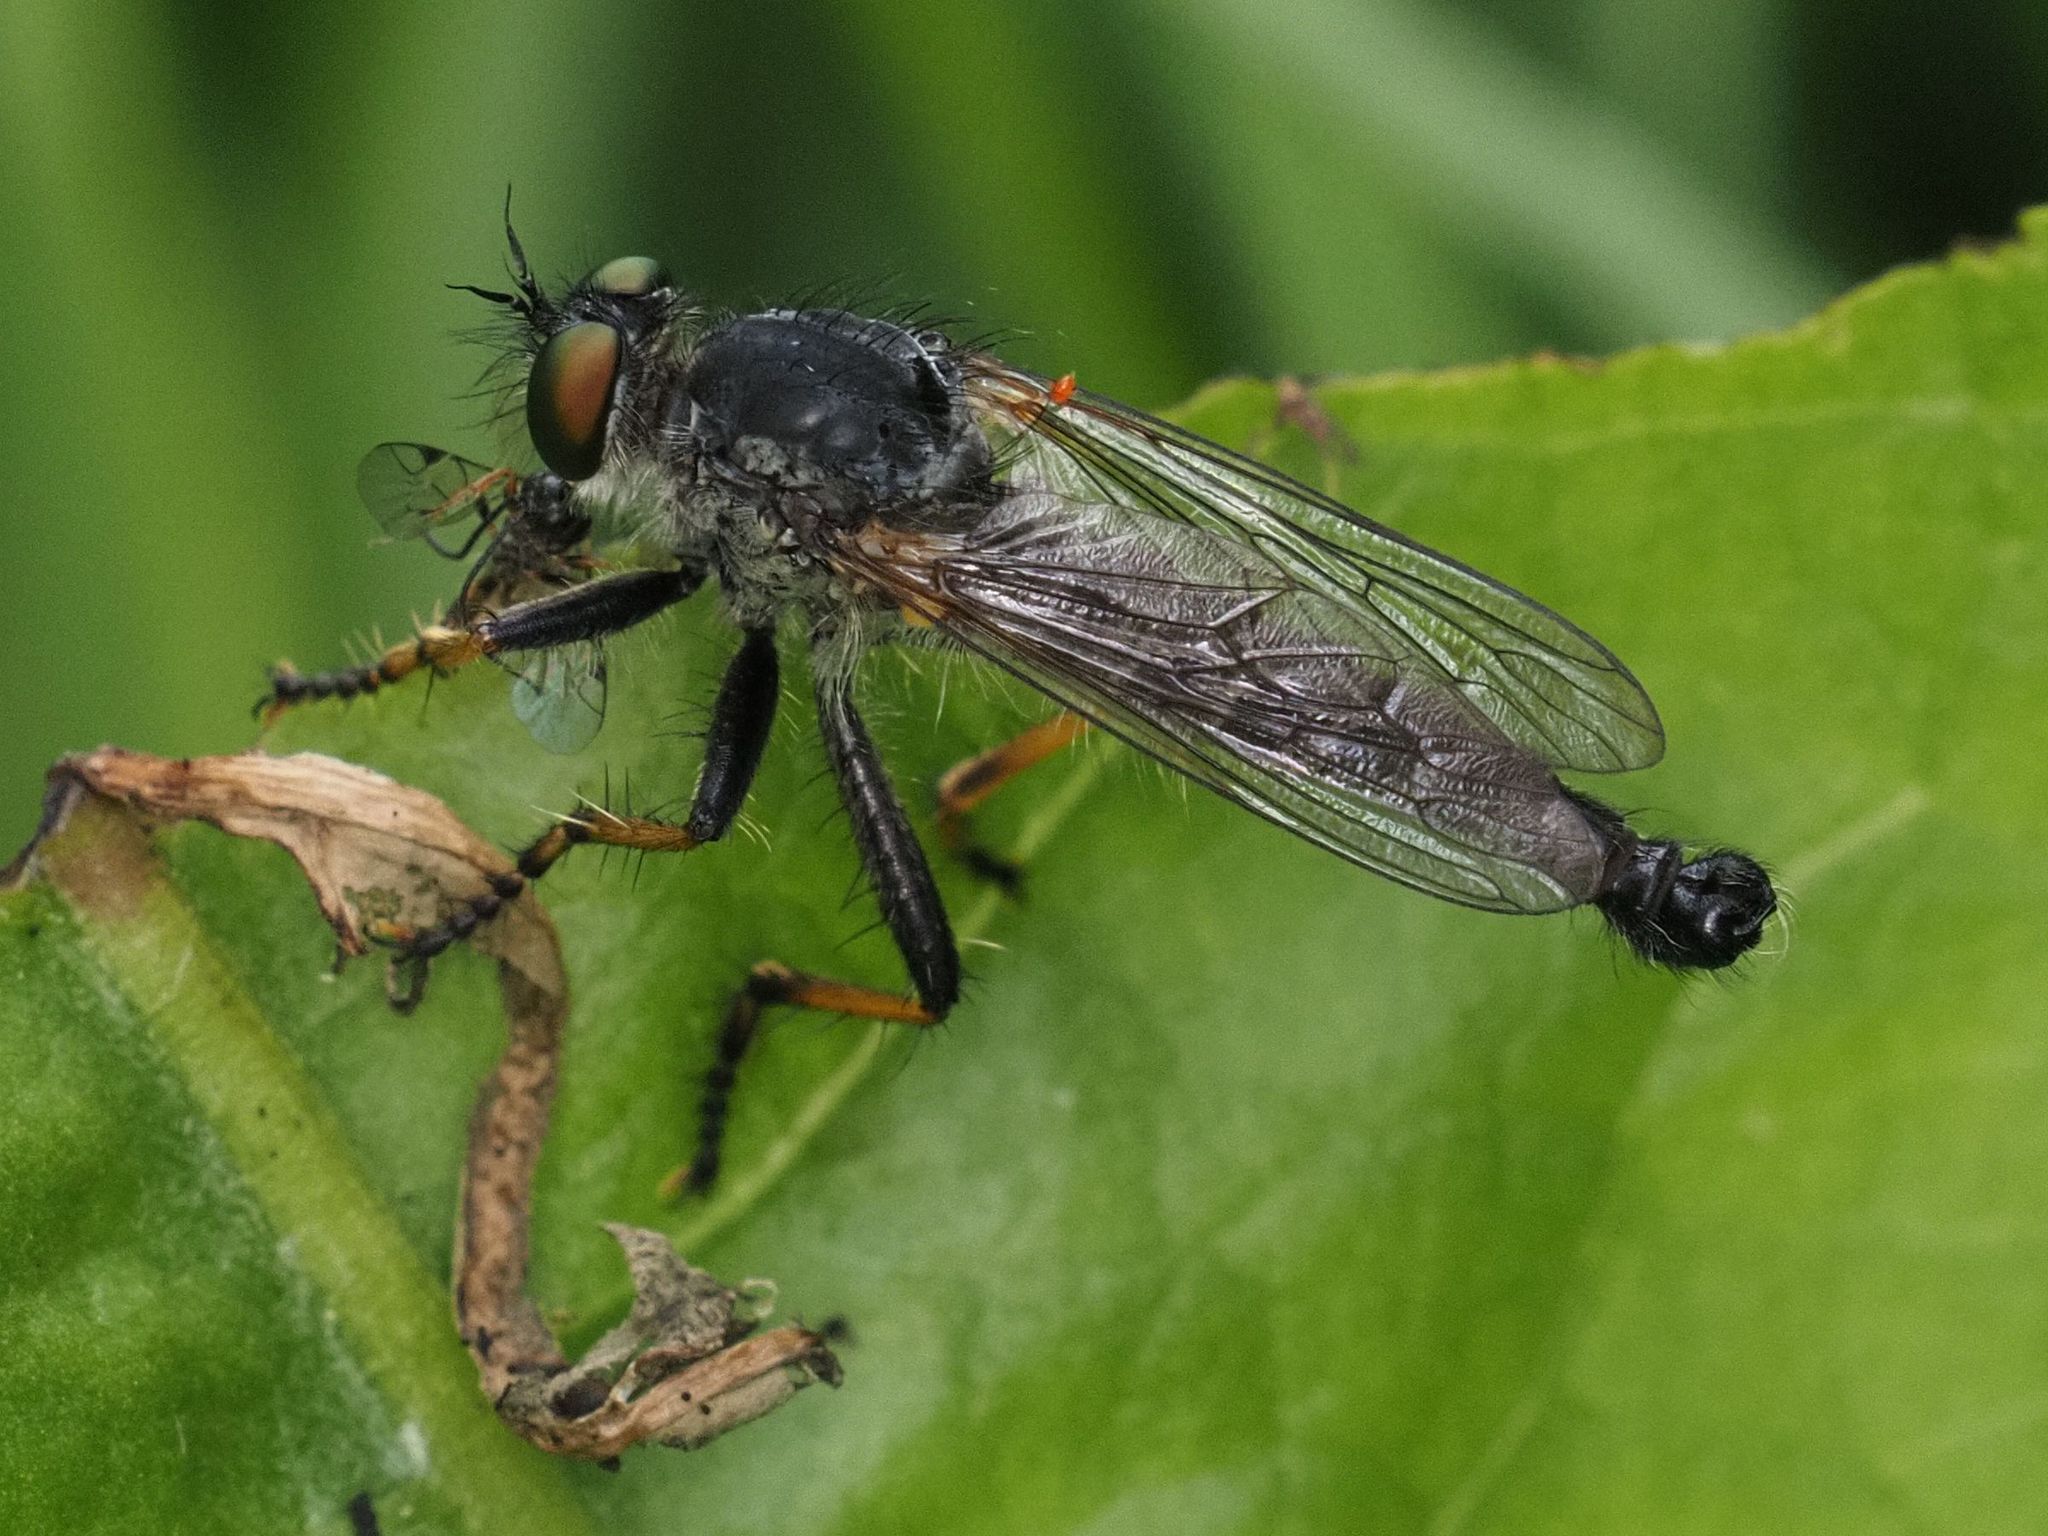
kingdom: Animalia
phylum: Arthropoda
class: Insecta
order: Diptera
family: Asilidae
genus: Neoitamus
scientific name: Neoitamus cothurnatus
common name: Scarce awl robberfly
